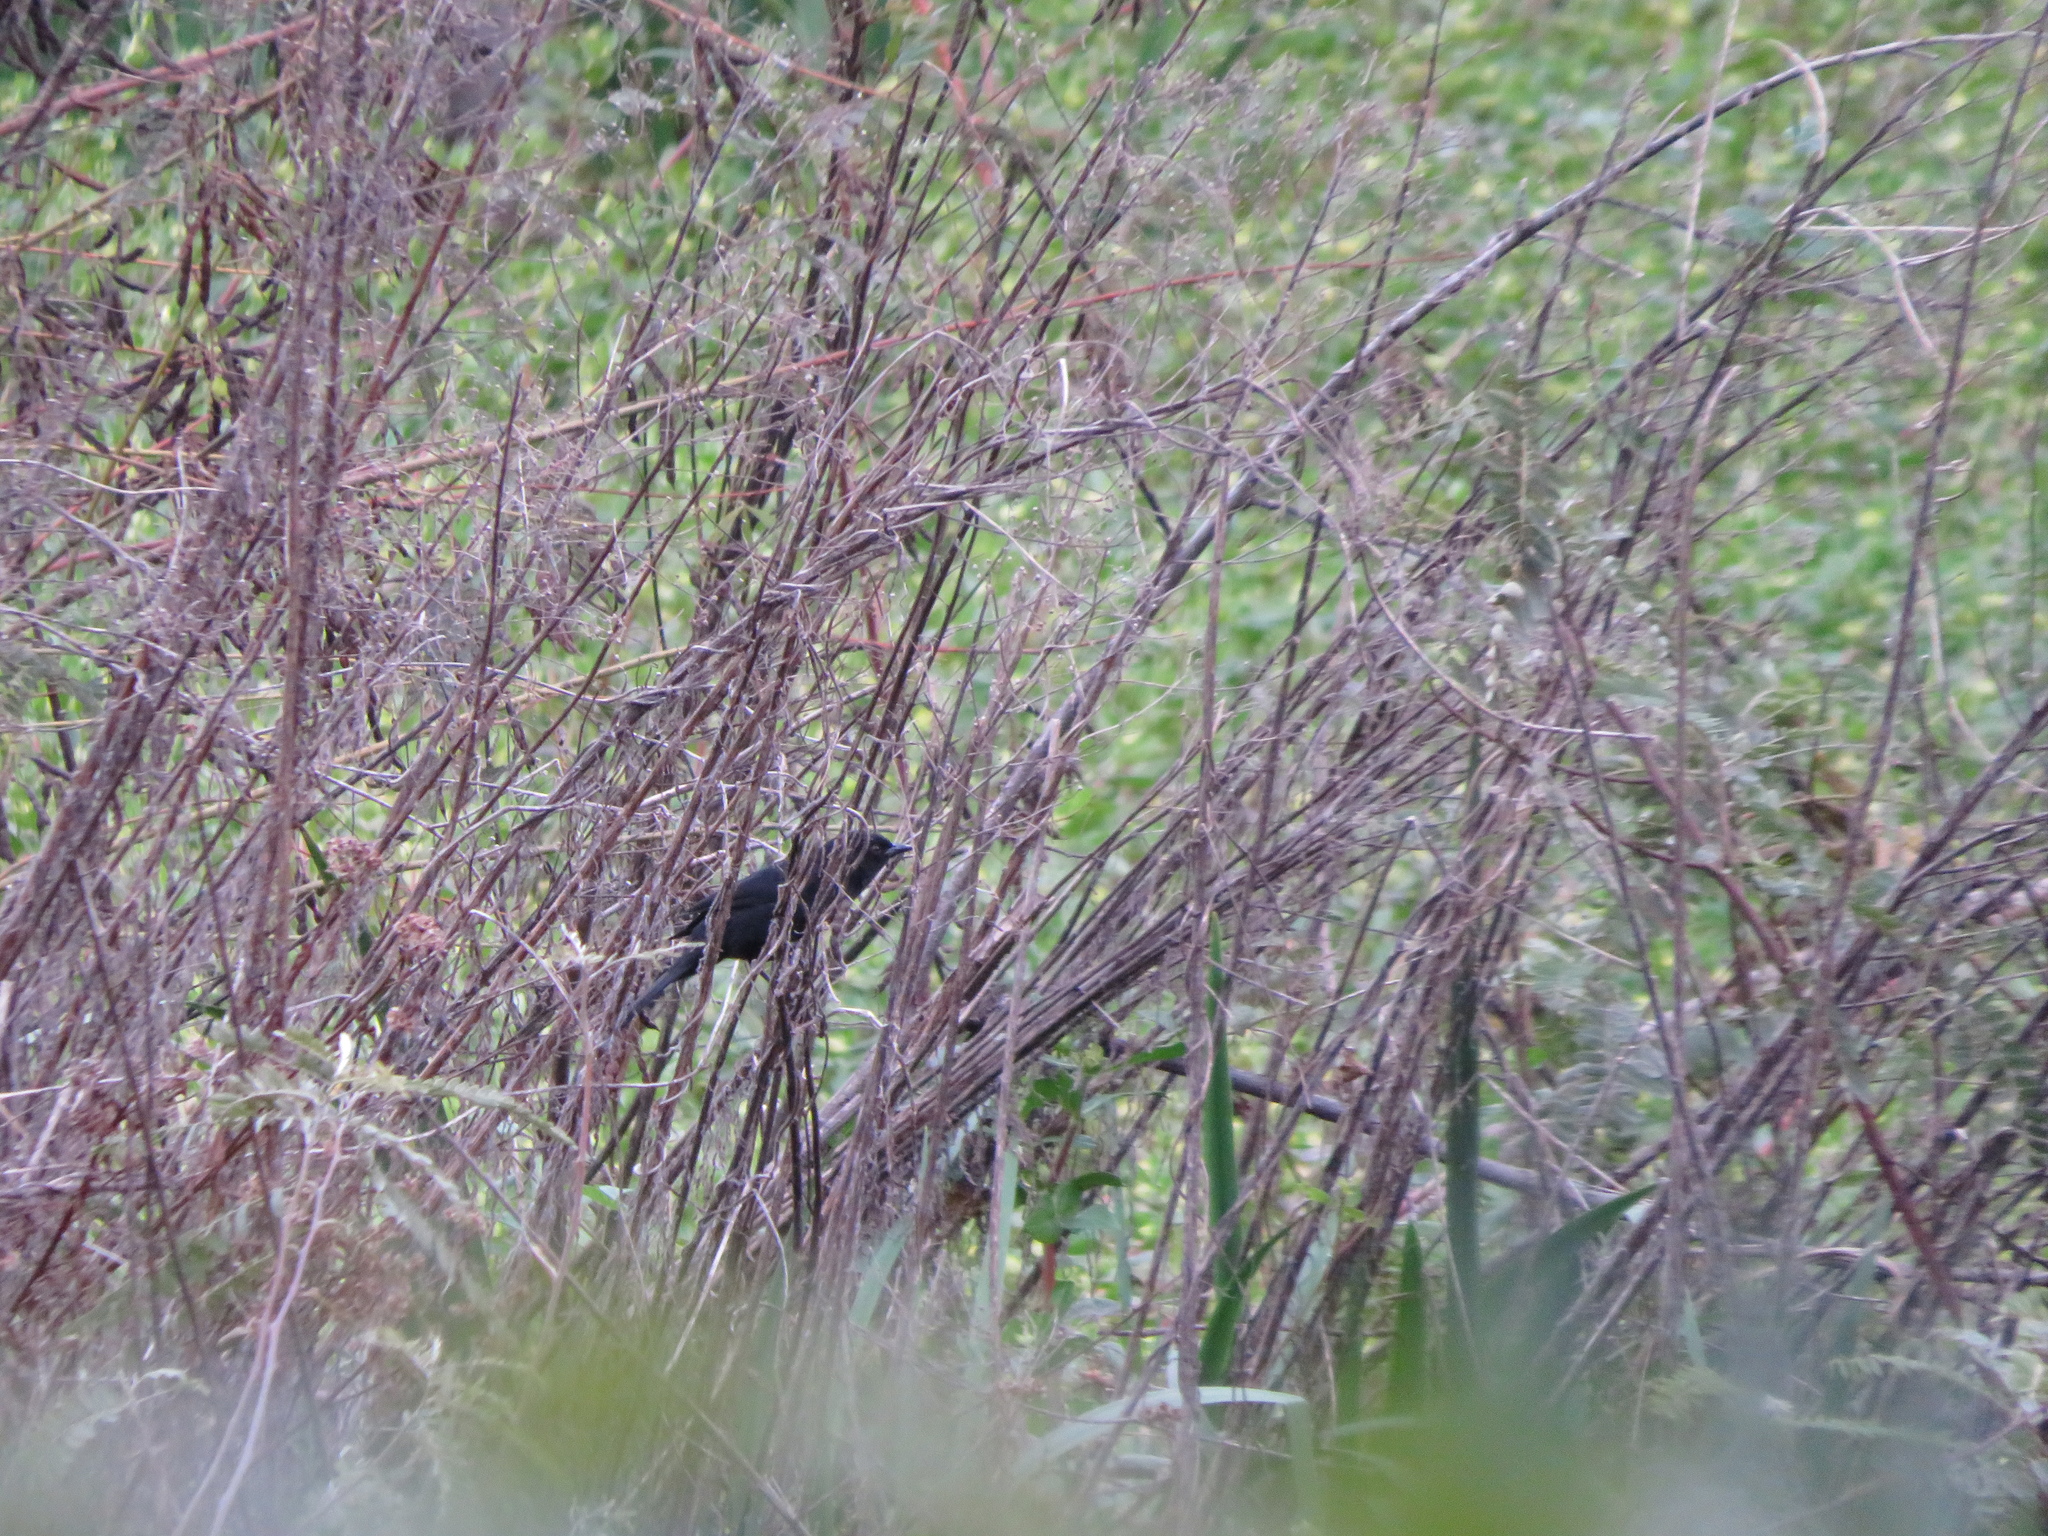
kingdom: Animalia
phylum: Chordata
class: Aves
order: Passeriformes
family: Icteridae
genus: Icterus
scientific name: Icterus cayanensis
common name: Epaulet oriole
